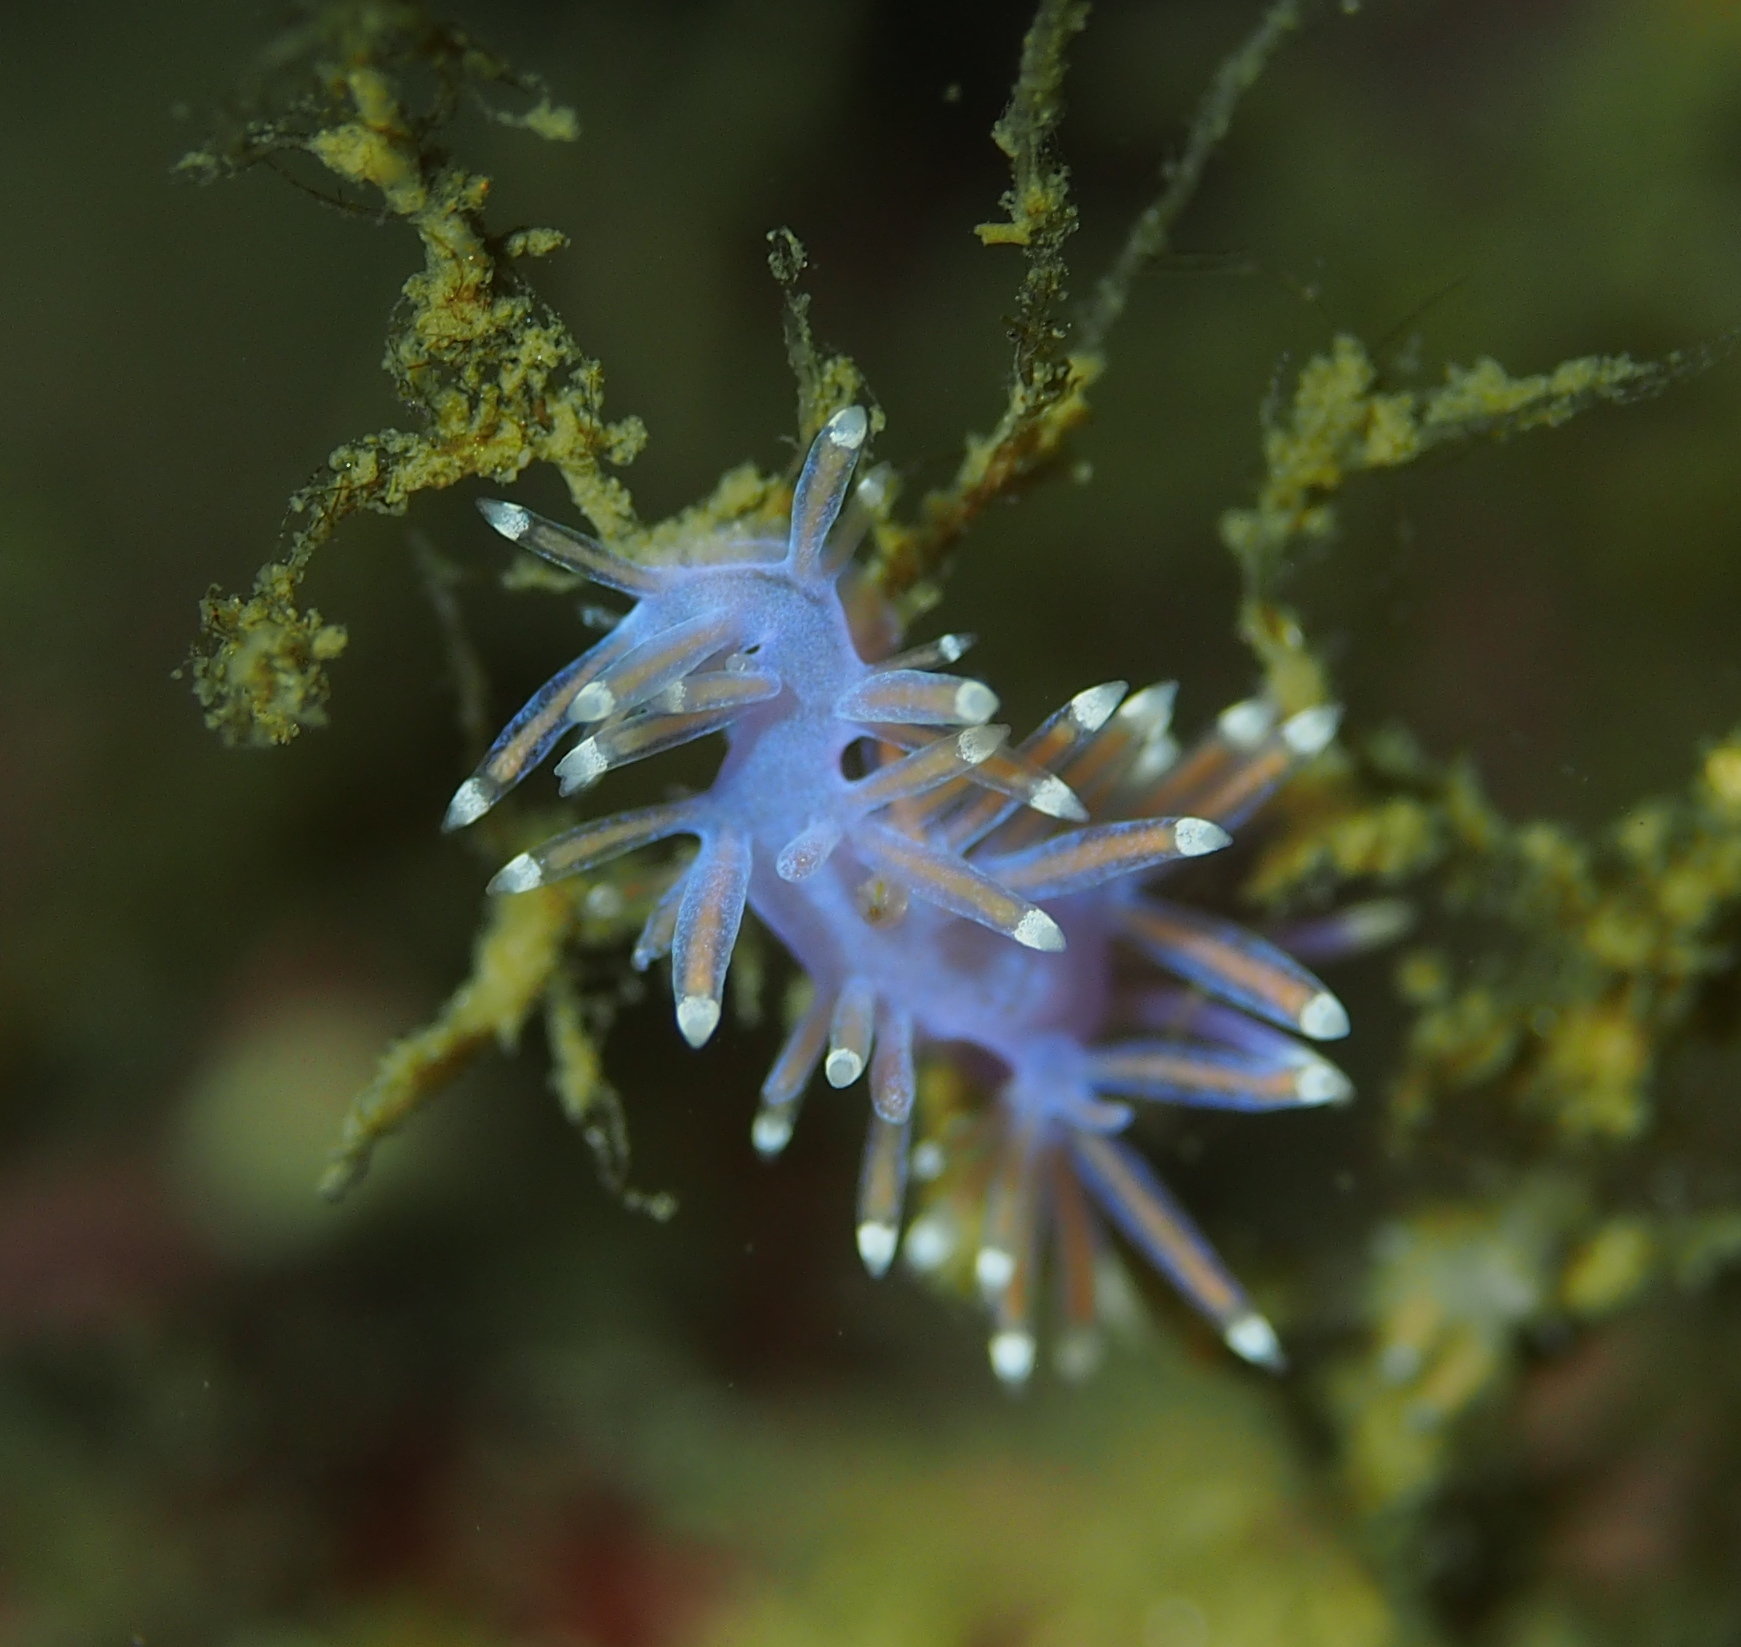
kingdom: Animalia
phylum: Mollusca
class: Gastropoda
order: Nudibranchia
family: Flabellinidae
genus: Edmundsella
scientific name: Edmundsella pedata
